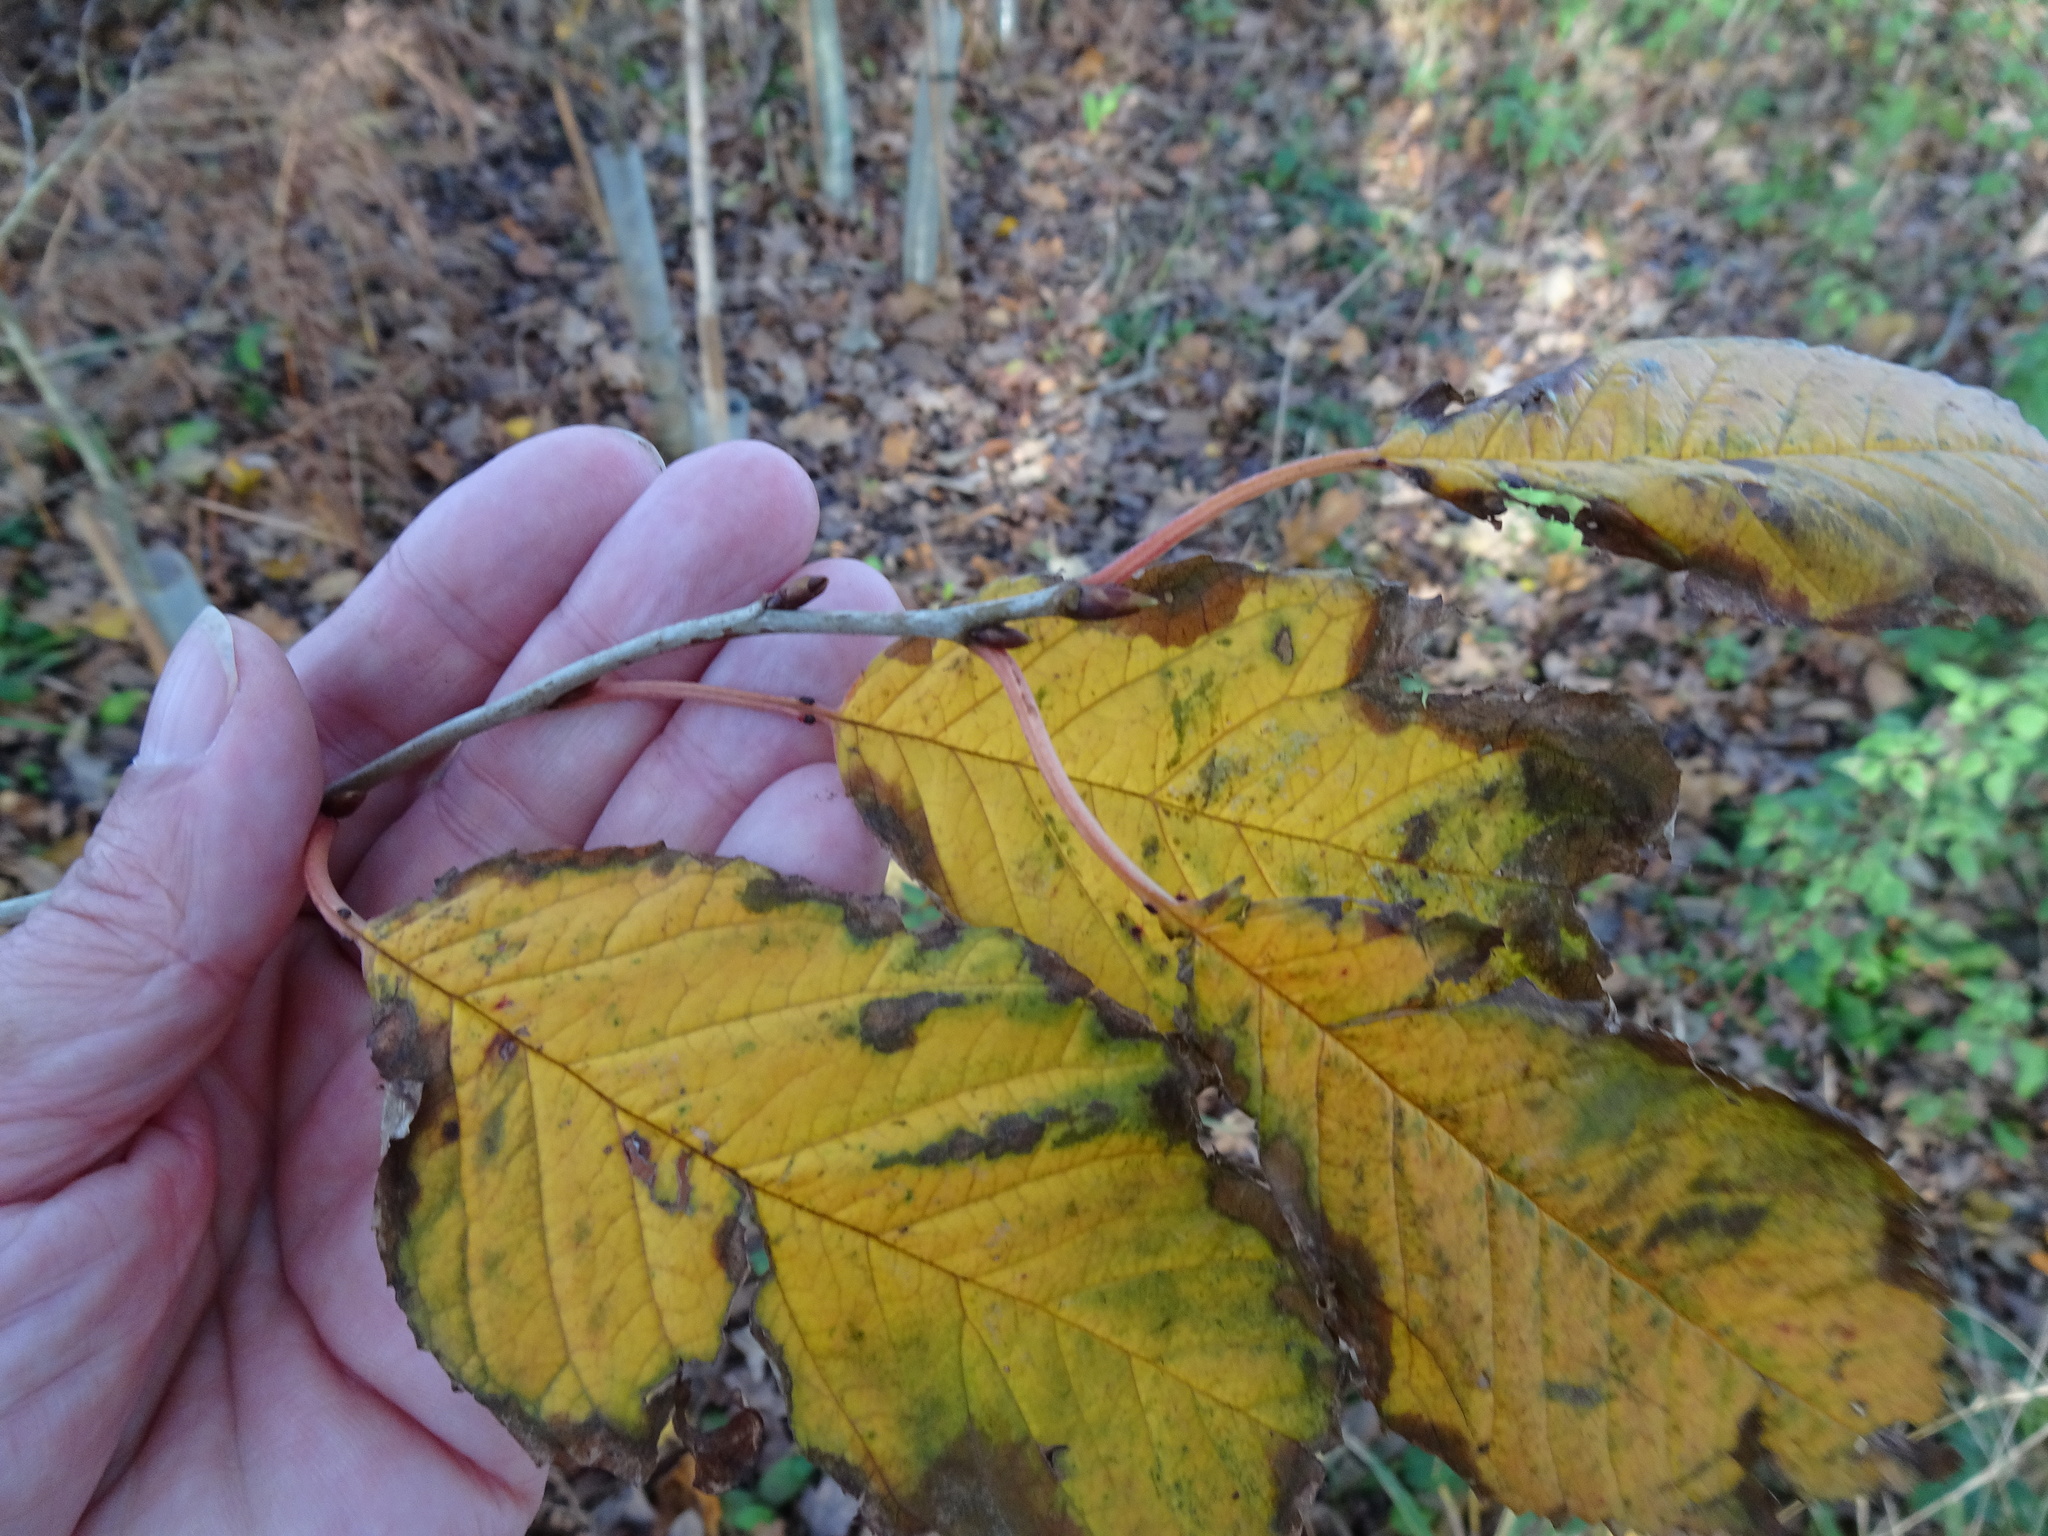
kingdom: Plantae
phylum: Tracheophyta
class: Magnoliopsida
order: Rosales
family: Rosaceae
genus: Prunus
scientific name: Prunus avium
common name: Sweet cherry
